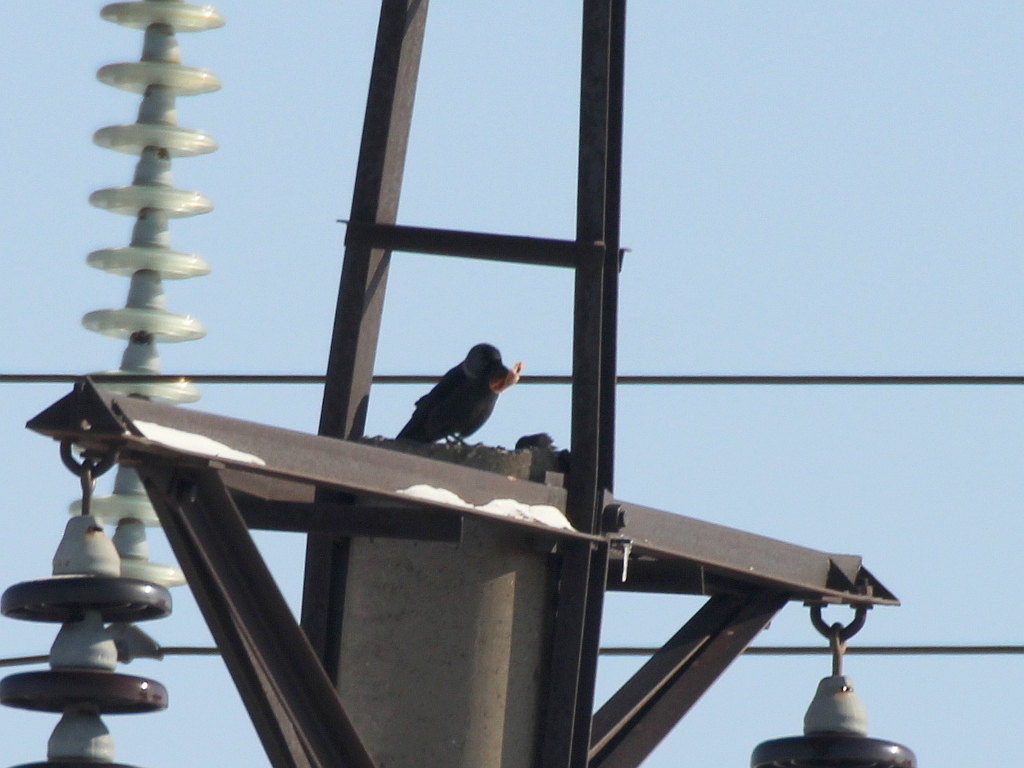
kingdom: Animalia
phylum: Chordata
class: Aves
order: Passeriformes
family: Corvidae
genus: Coloeus
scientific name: Coloeus monedula
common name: Western jackdaw
